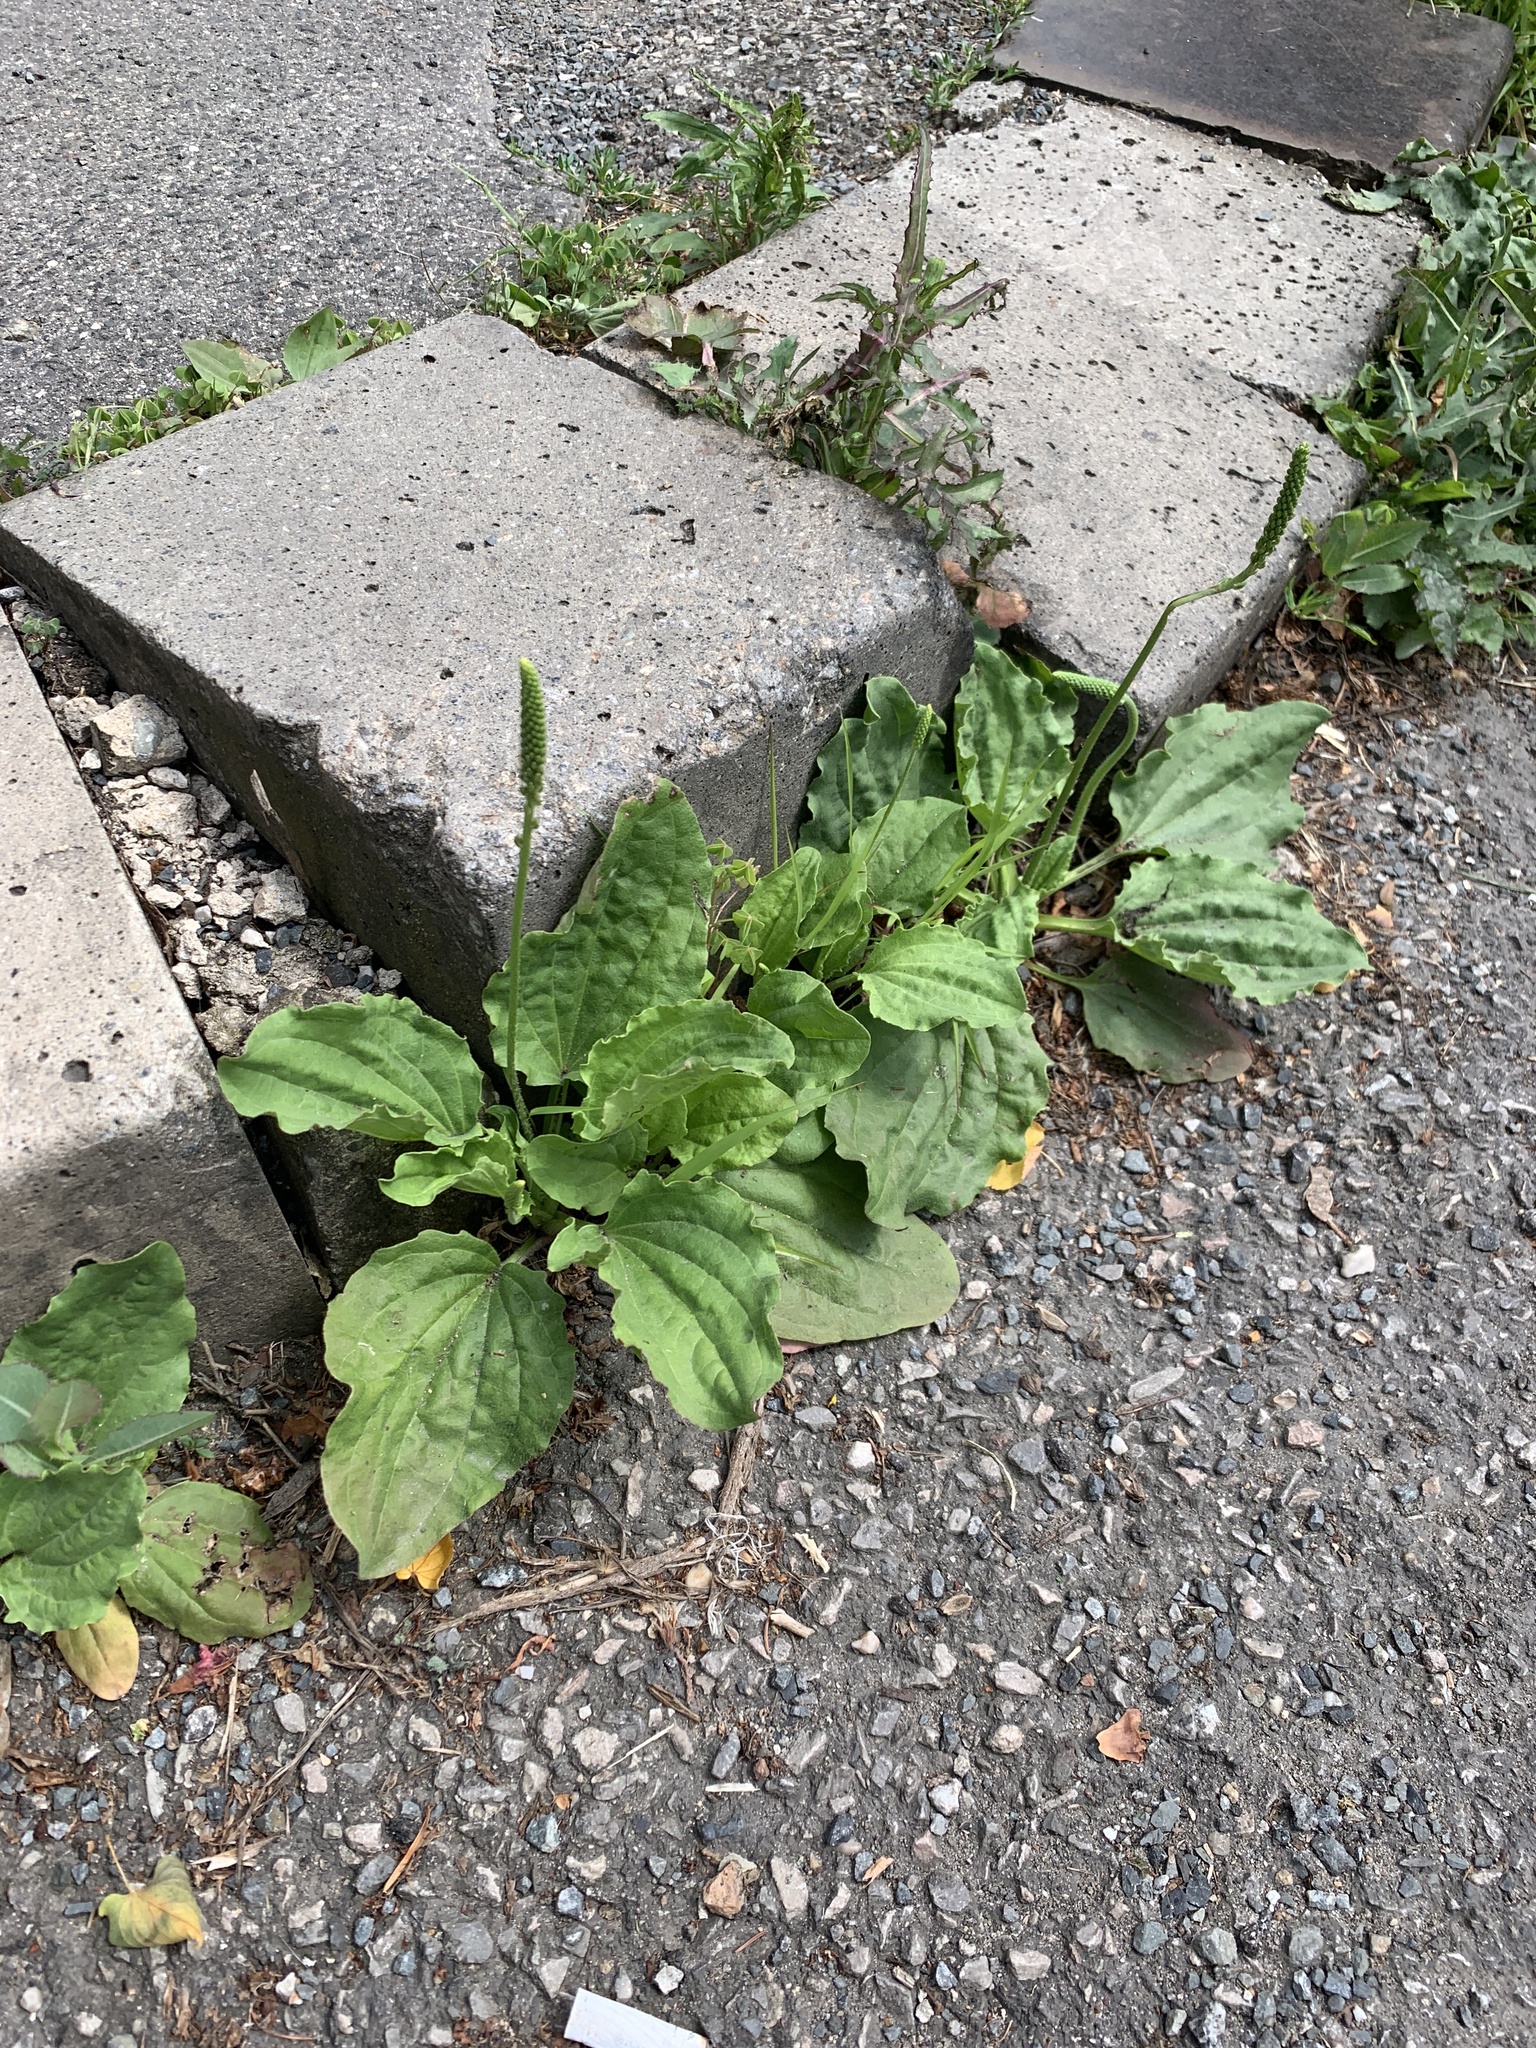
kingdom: Plantae
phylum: Tracheophyta
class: Magnoliopsida
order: Lamiales
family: Plantaginaceae
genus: Plantago
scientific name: Plantago major
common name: Common plantain
